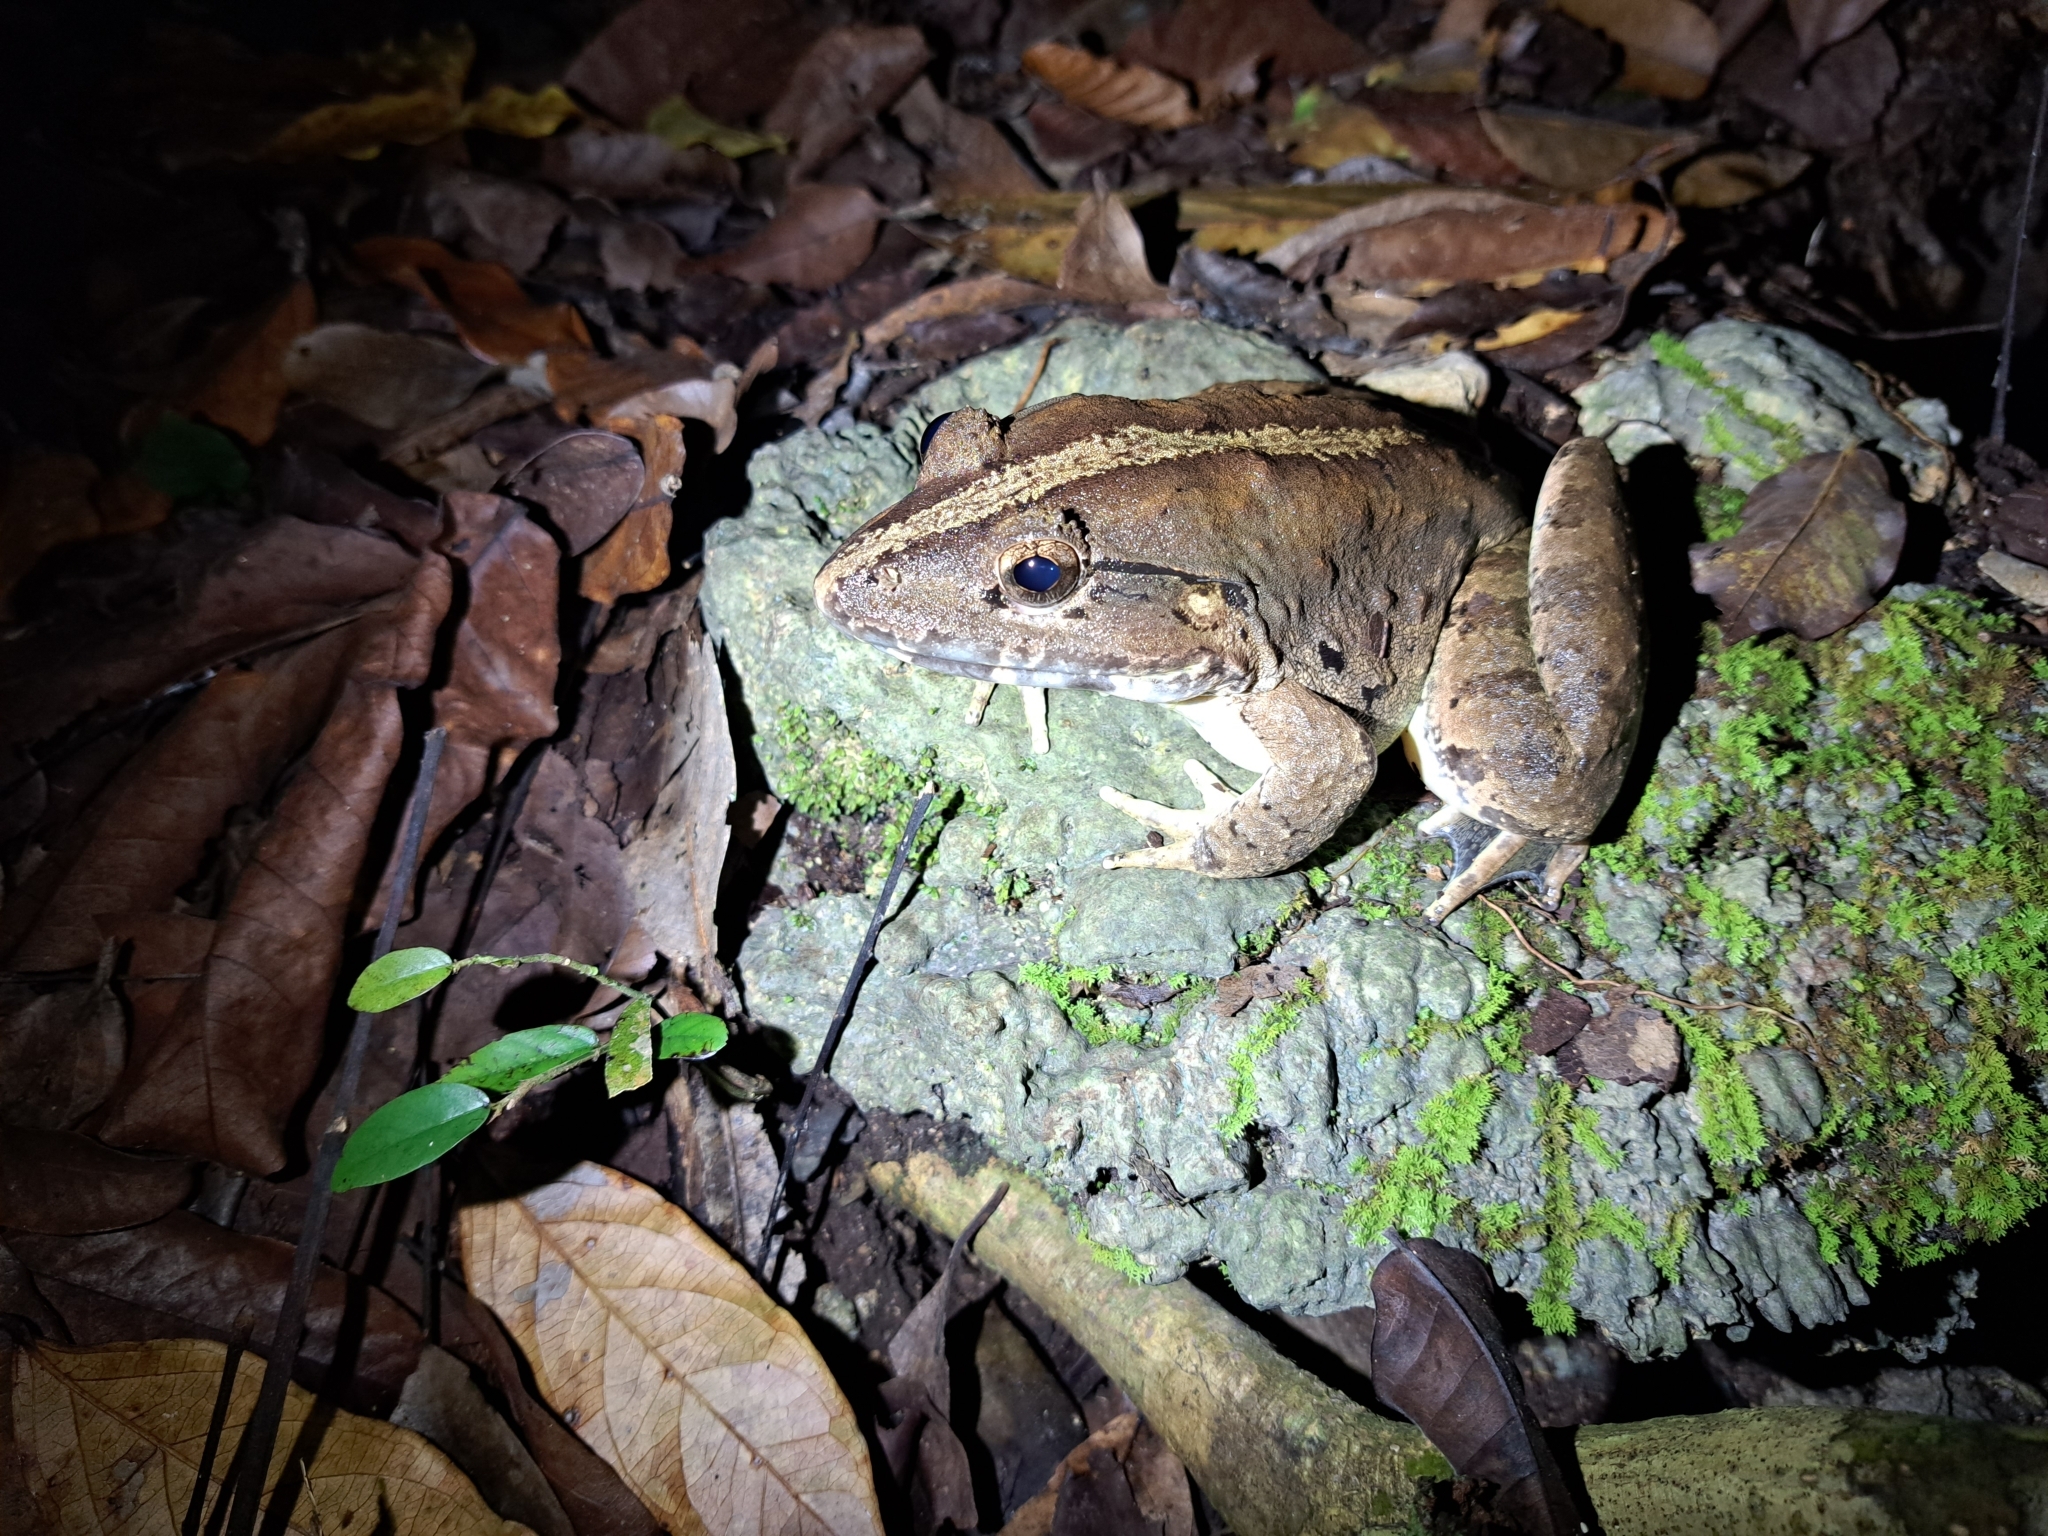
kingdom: Animalia
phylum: Chordata
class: Amphibia
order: Anura
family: Dicroglossidae
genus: Limnonectes
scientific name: Limnonectes blythii
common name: Blyth’s river frog/giant asian river frog/giant frog
